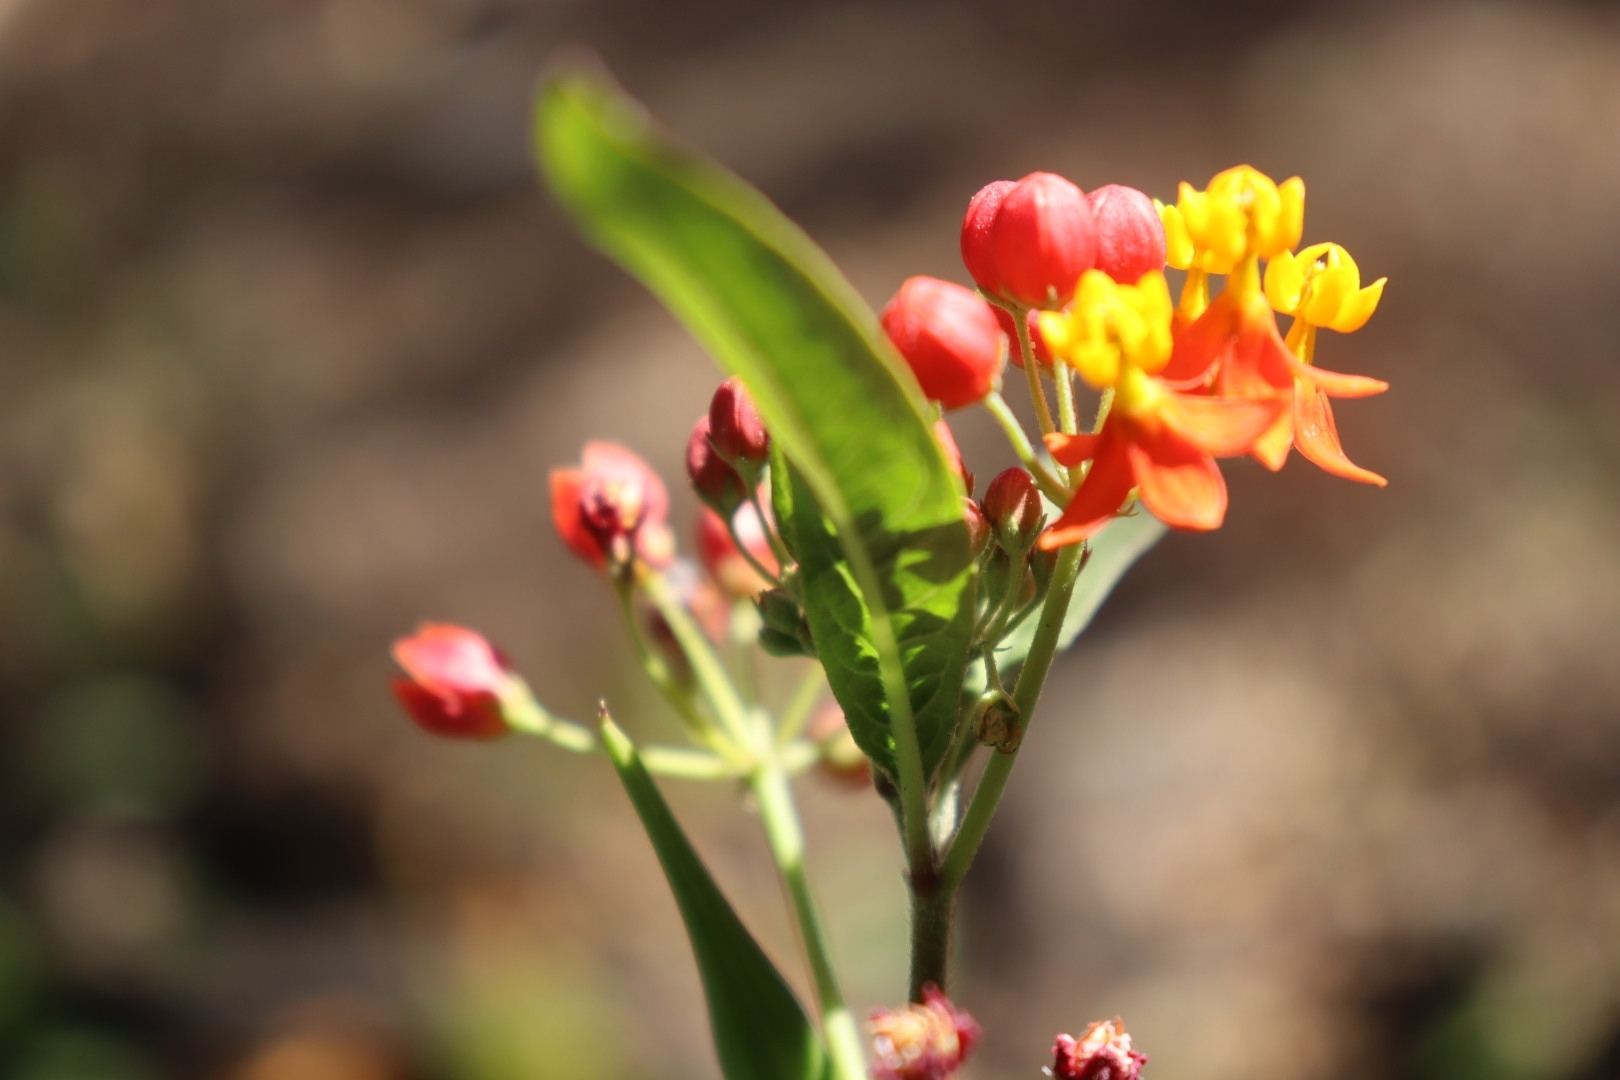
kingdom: Plantae
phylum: Tracheophyta
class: Magnoliopsida
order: Gentianales
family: Apocynaceae
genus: Asclepias
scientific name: Asclepias curassavica
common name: Bloodflower
